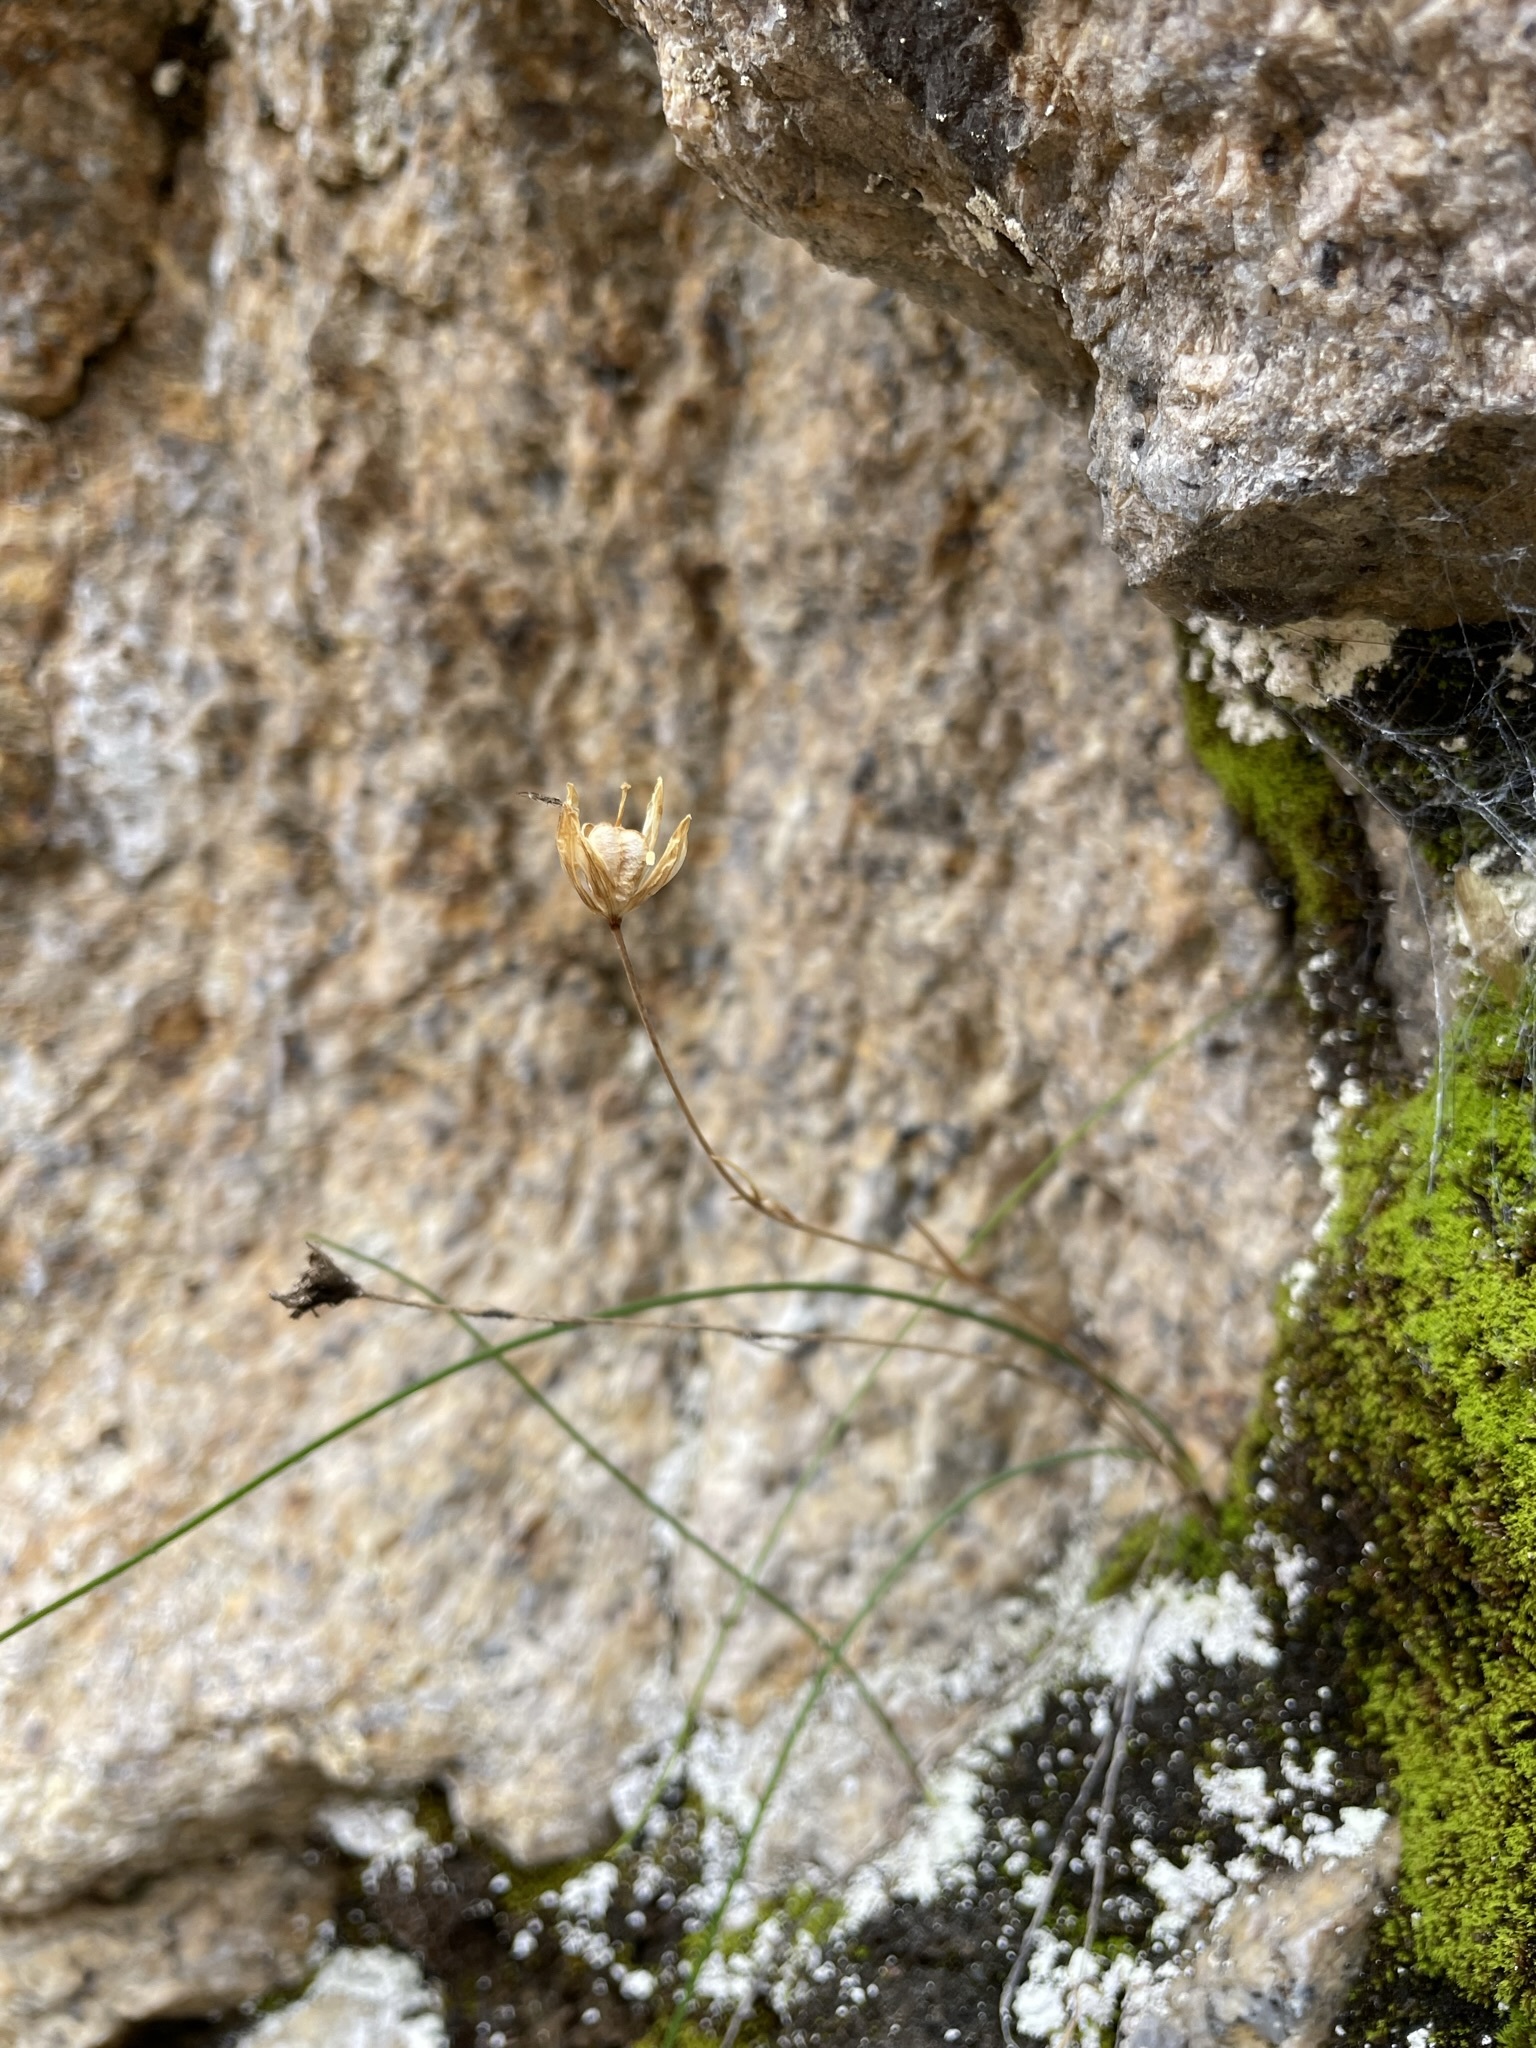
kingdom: Plantae
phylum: Tracheophyta
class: Liliopsida
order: Liliales
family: Liliaceae
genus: Gagea
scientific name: Gagea serotina
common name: Snowdon lily
